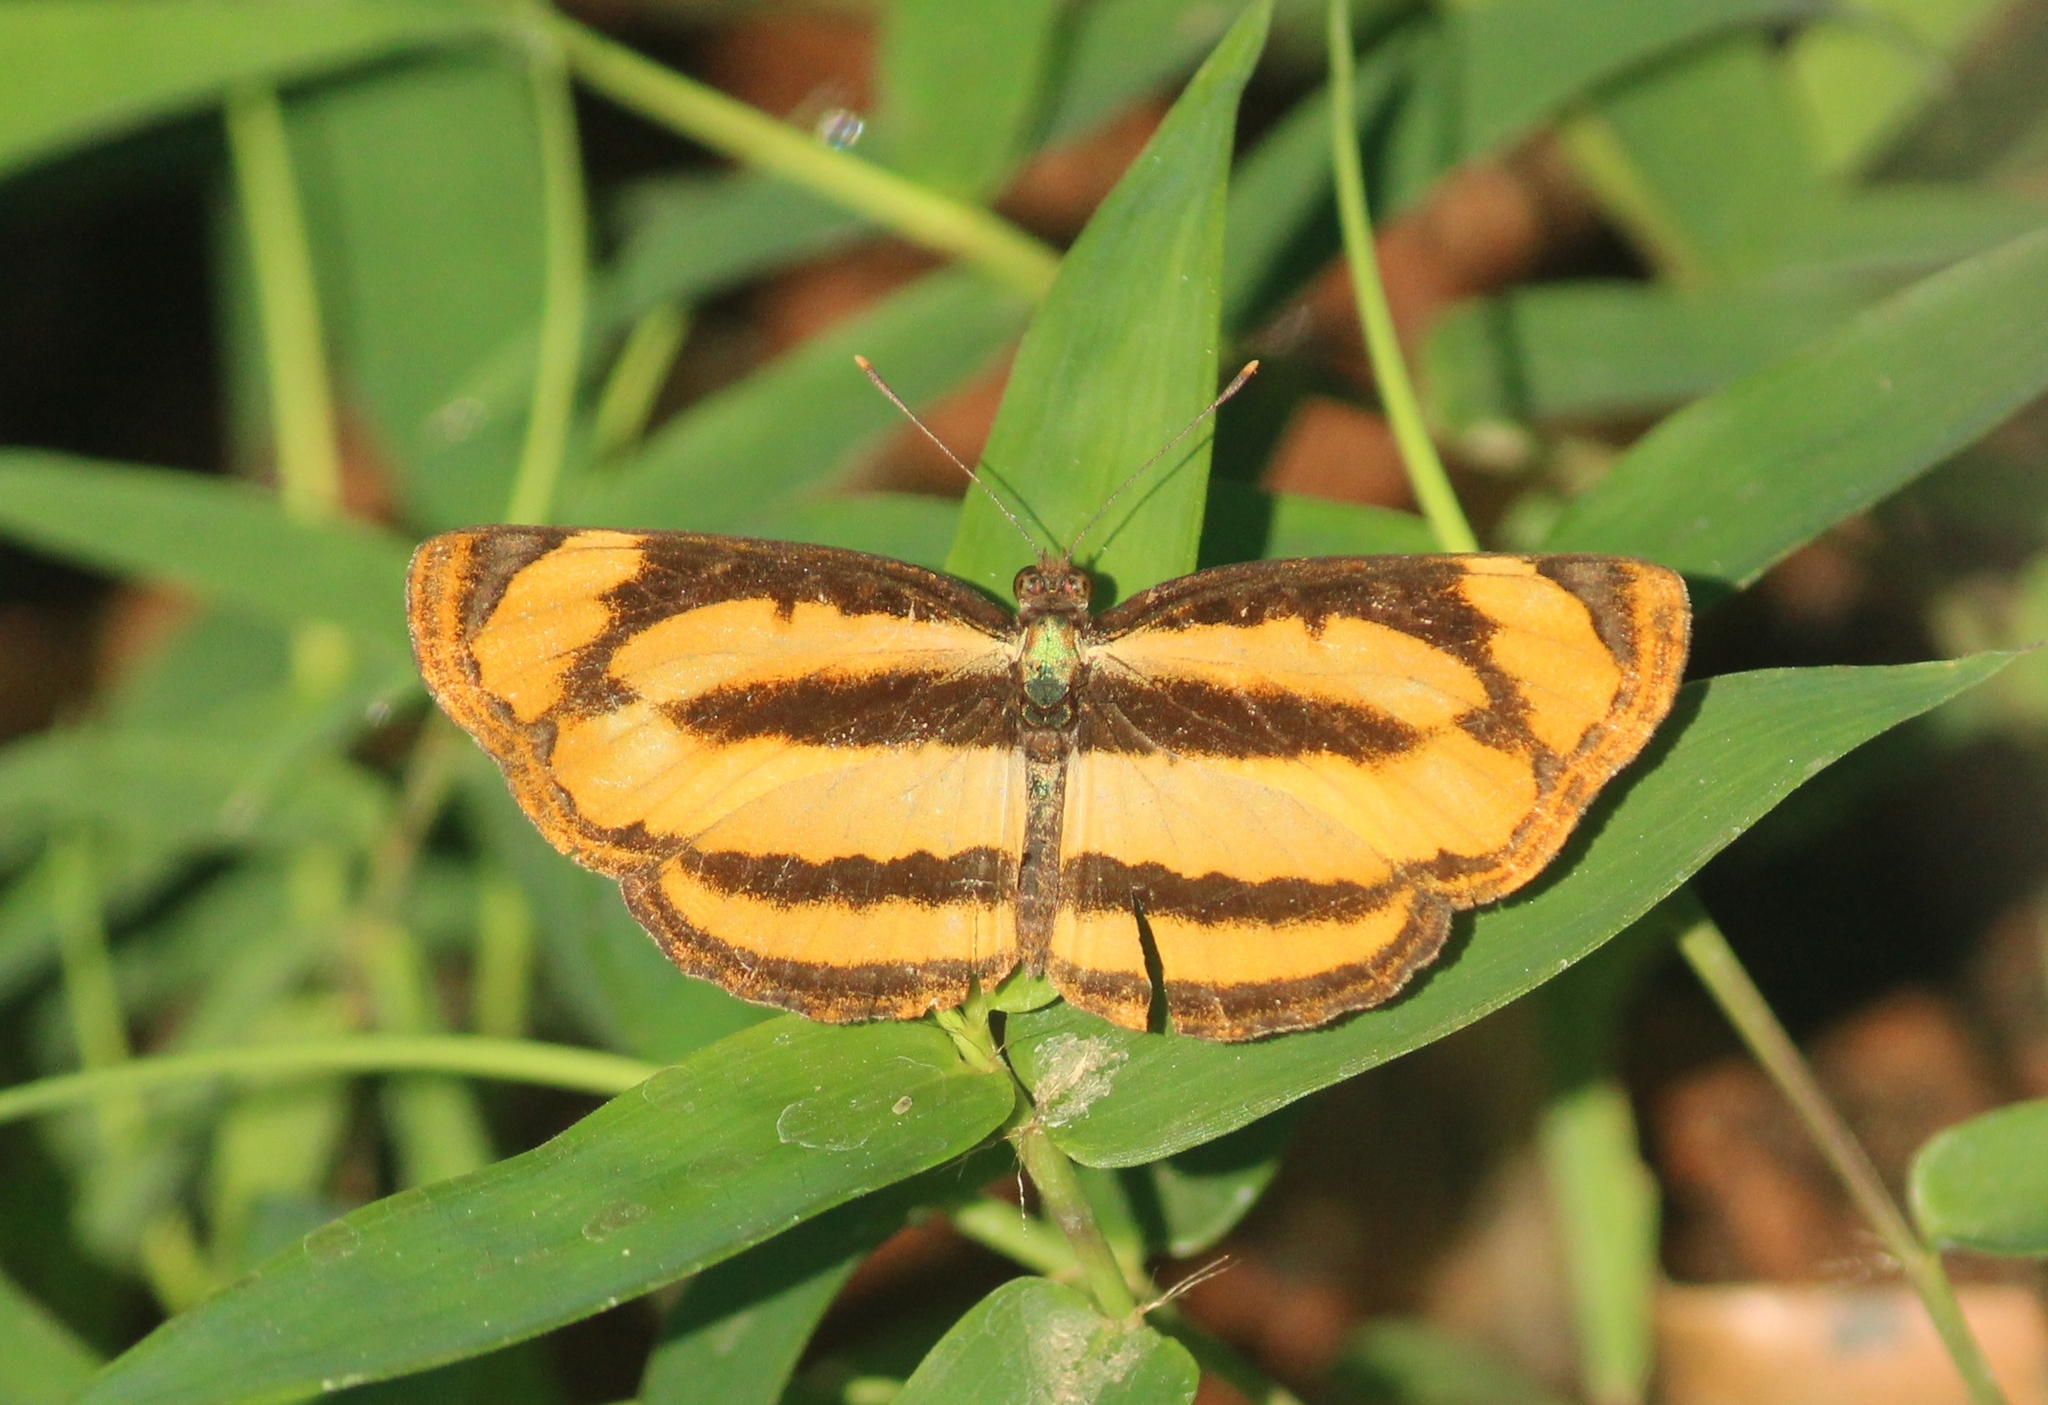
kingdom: Animalia
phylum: Arthropoda
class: Insecta
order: Lepidoptera
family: Nymphalidae
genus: Pantoporia
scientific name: Pantoporia hordonia
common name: Common lascar
